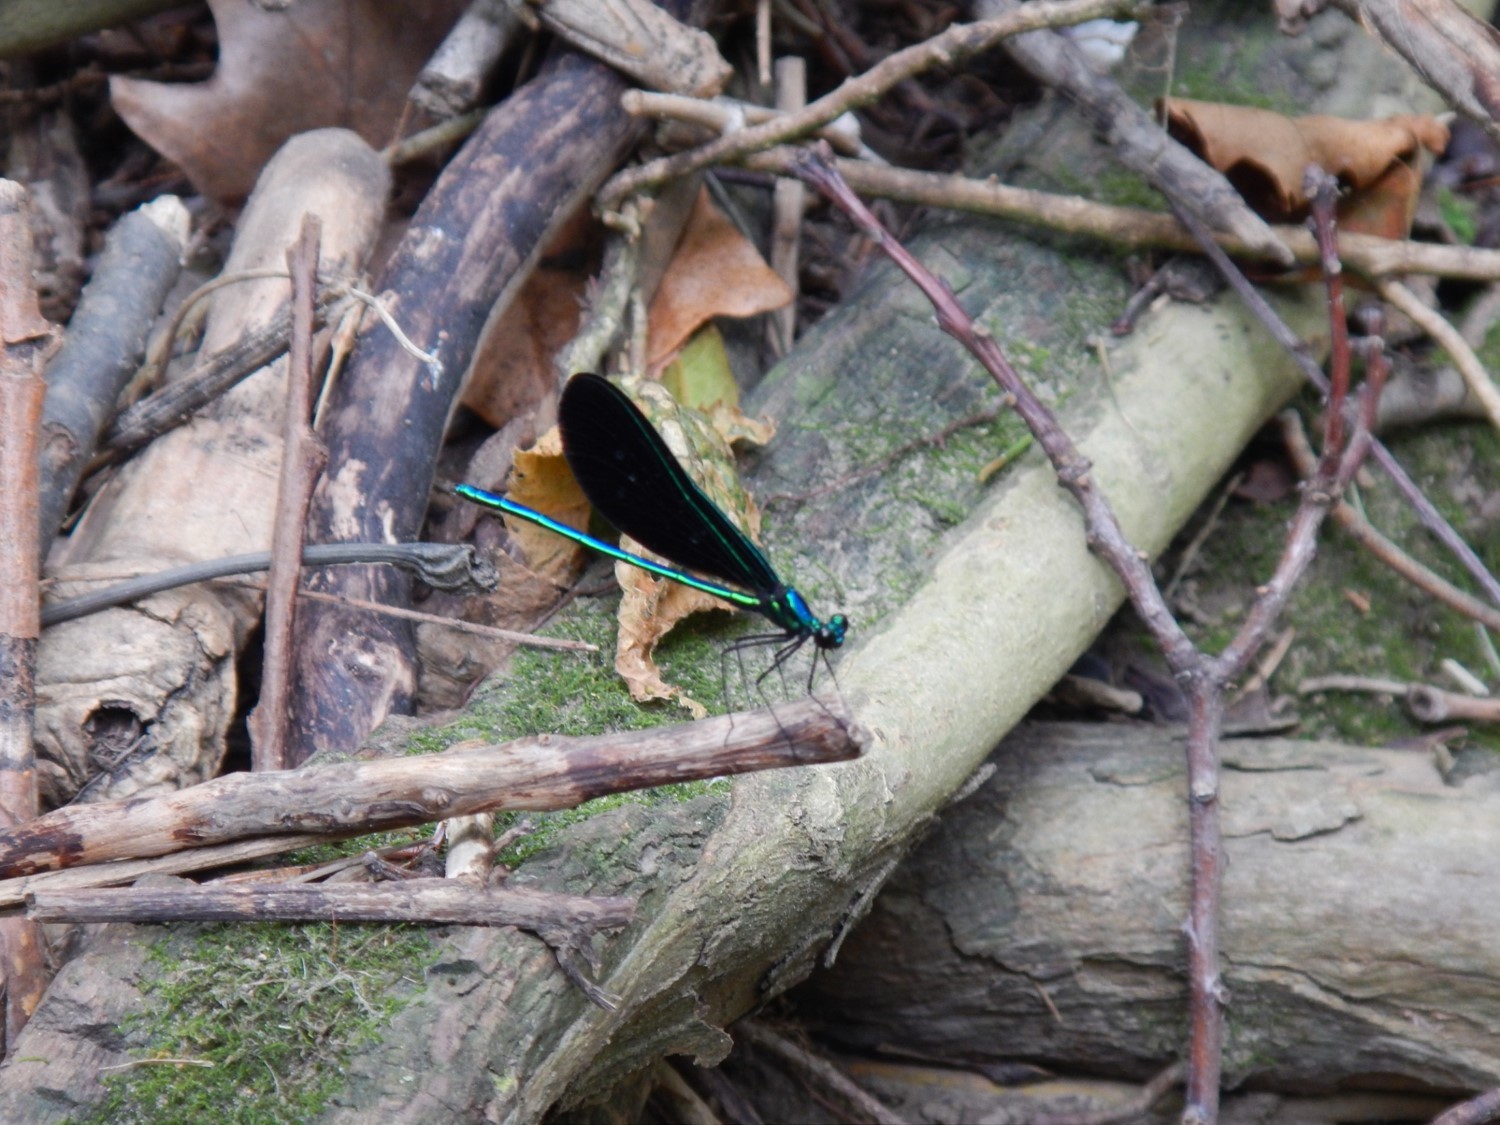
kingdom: Animalia
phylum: Arthropoda
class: Insecta
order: Odonata
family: Calopterygidae
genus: Calopteryx
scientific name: Calopteryx maculata
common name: Ebony jewelwing
